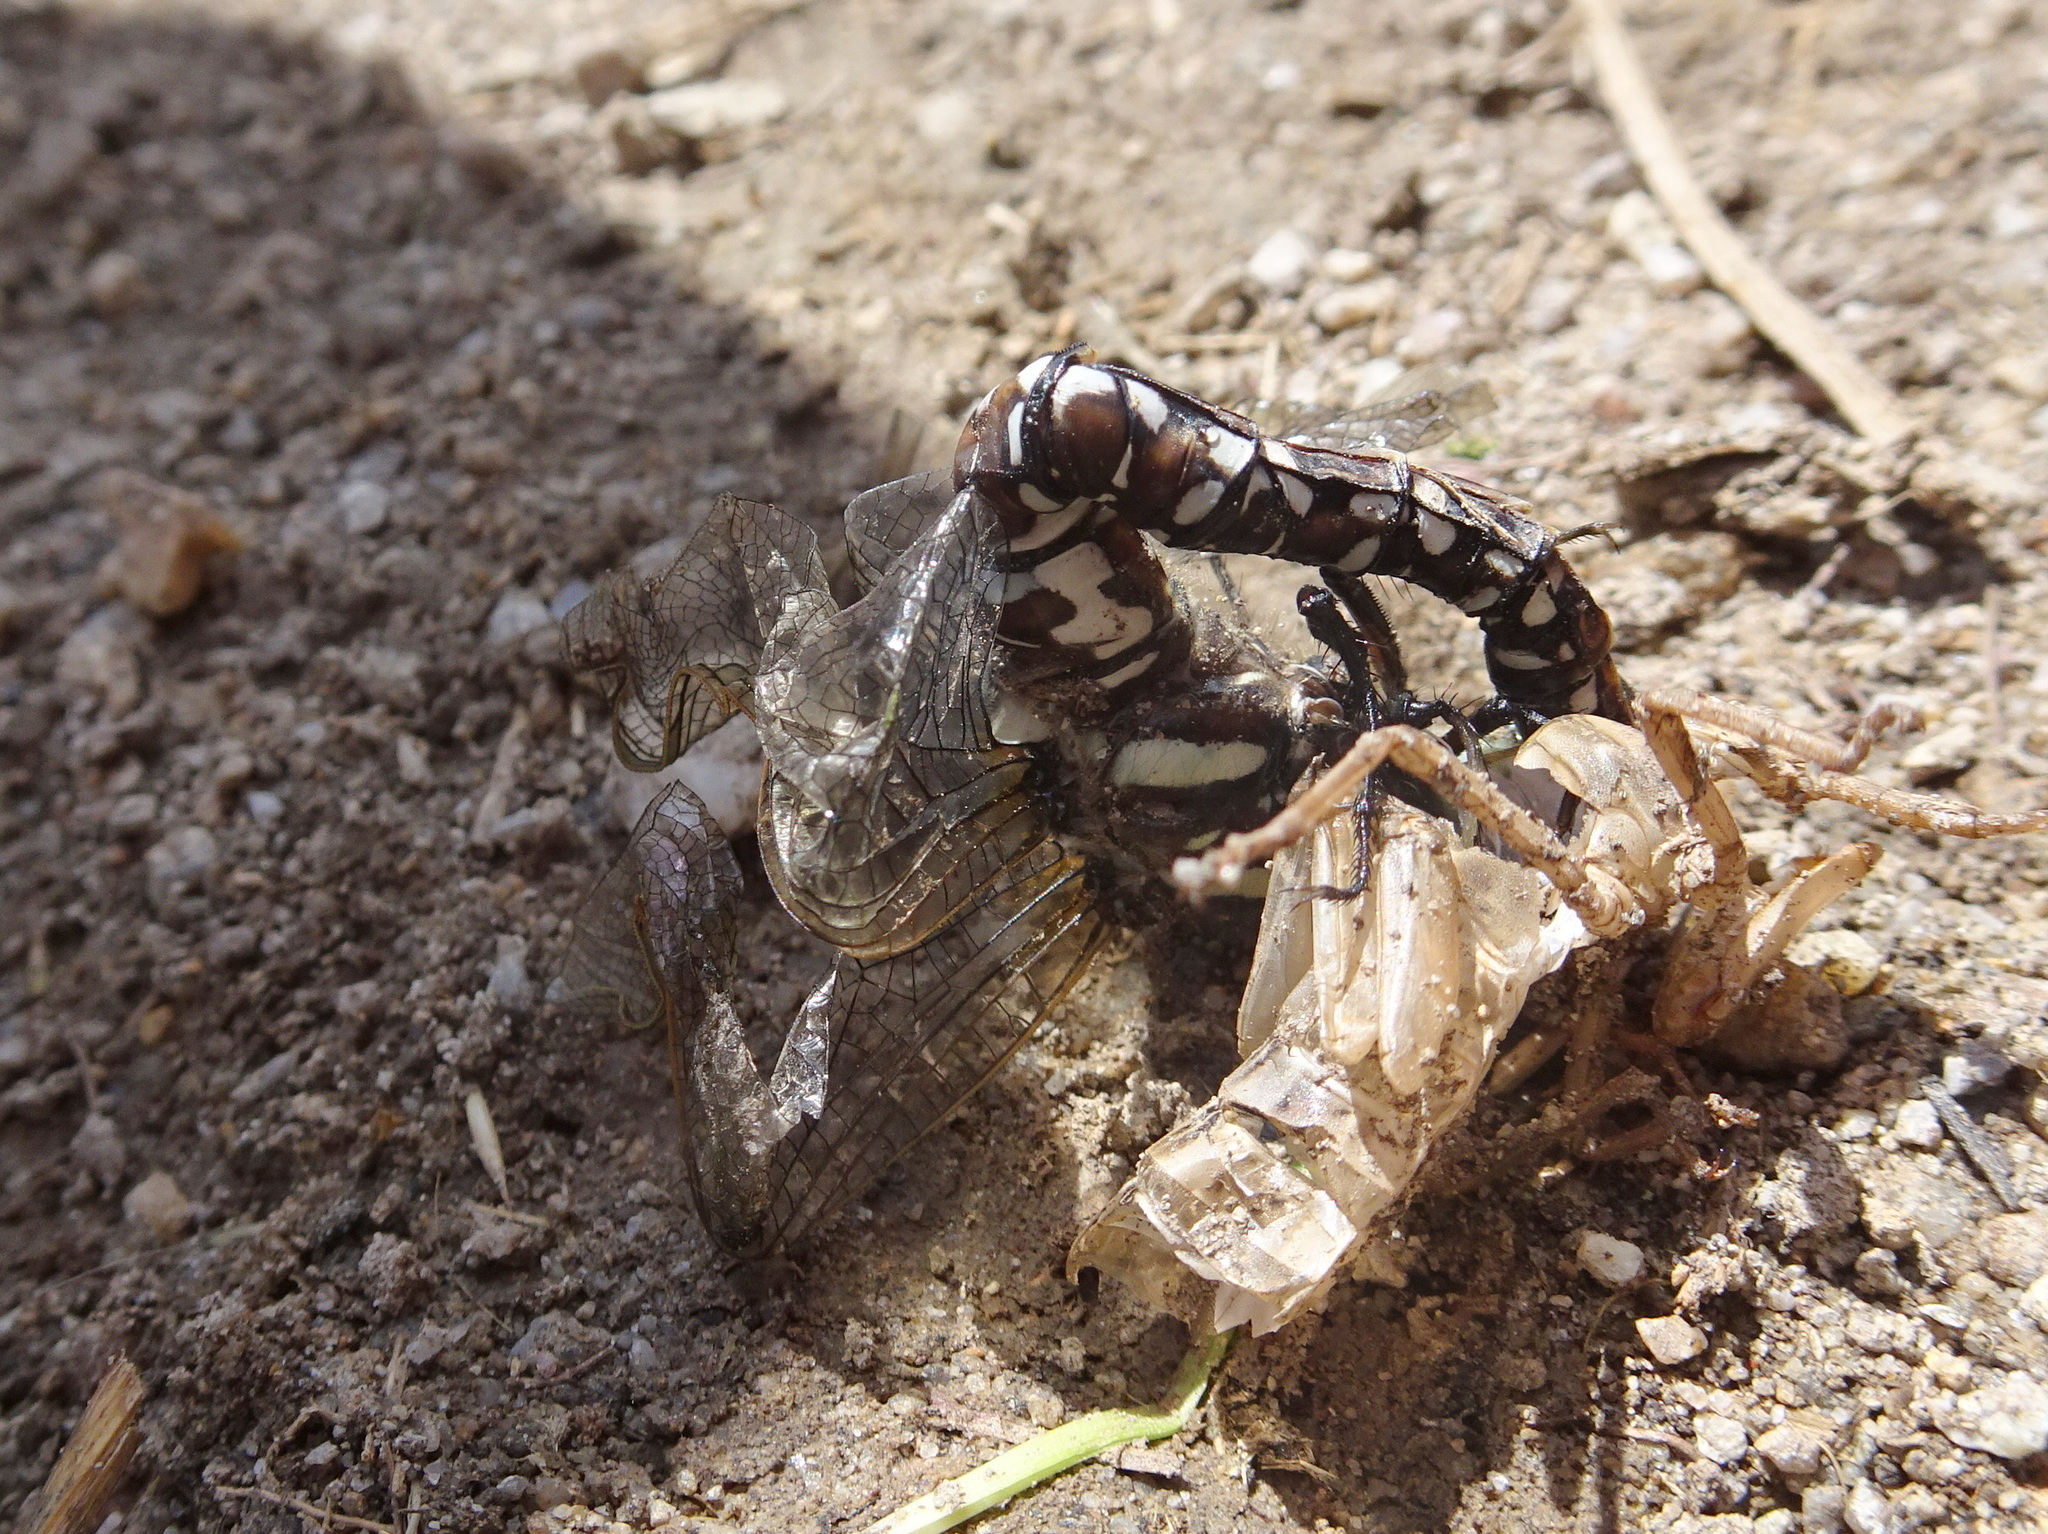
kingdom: Animalia
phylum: Arthropoda
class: Insecta
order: Odonata
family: Aeshnidae
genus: Aeshna
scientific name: Aeshna juncea
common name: Moorland hawker
